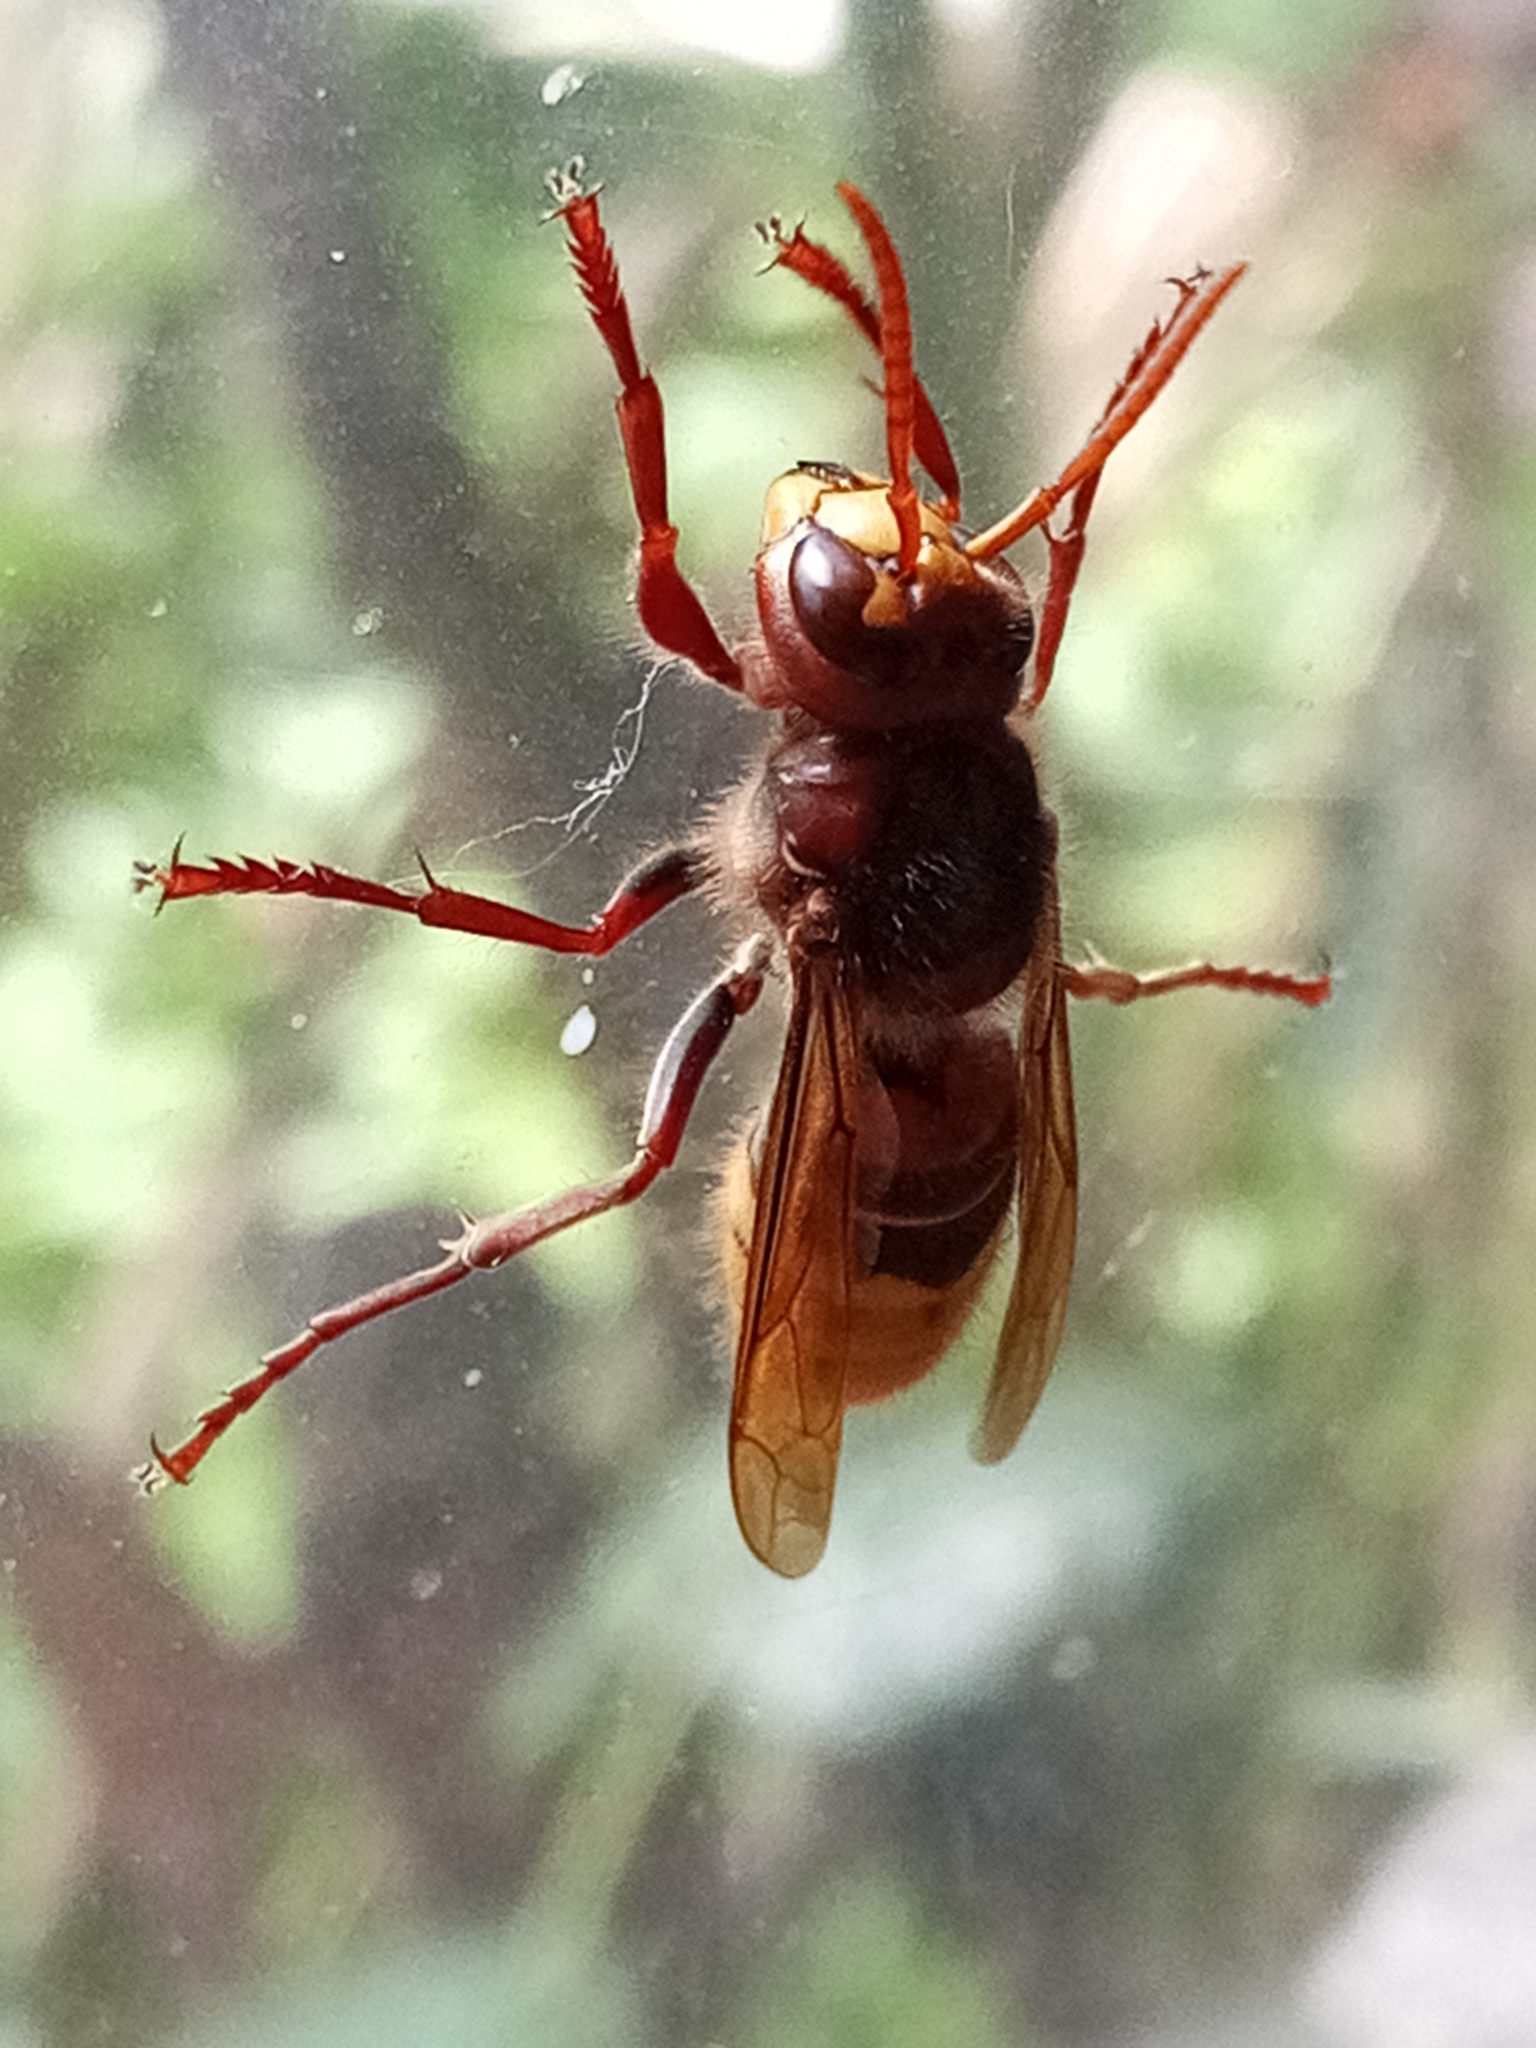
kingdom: Animalia
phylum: Arthropoda
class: Insecta
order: Hymenoptera
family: Vespidae
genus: Vespa
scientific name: Vespa crabro
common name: Hornet
